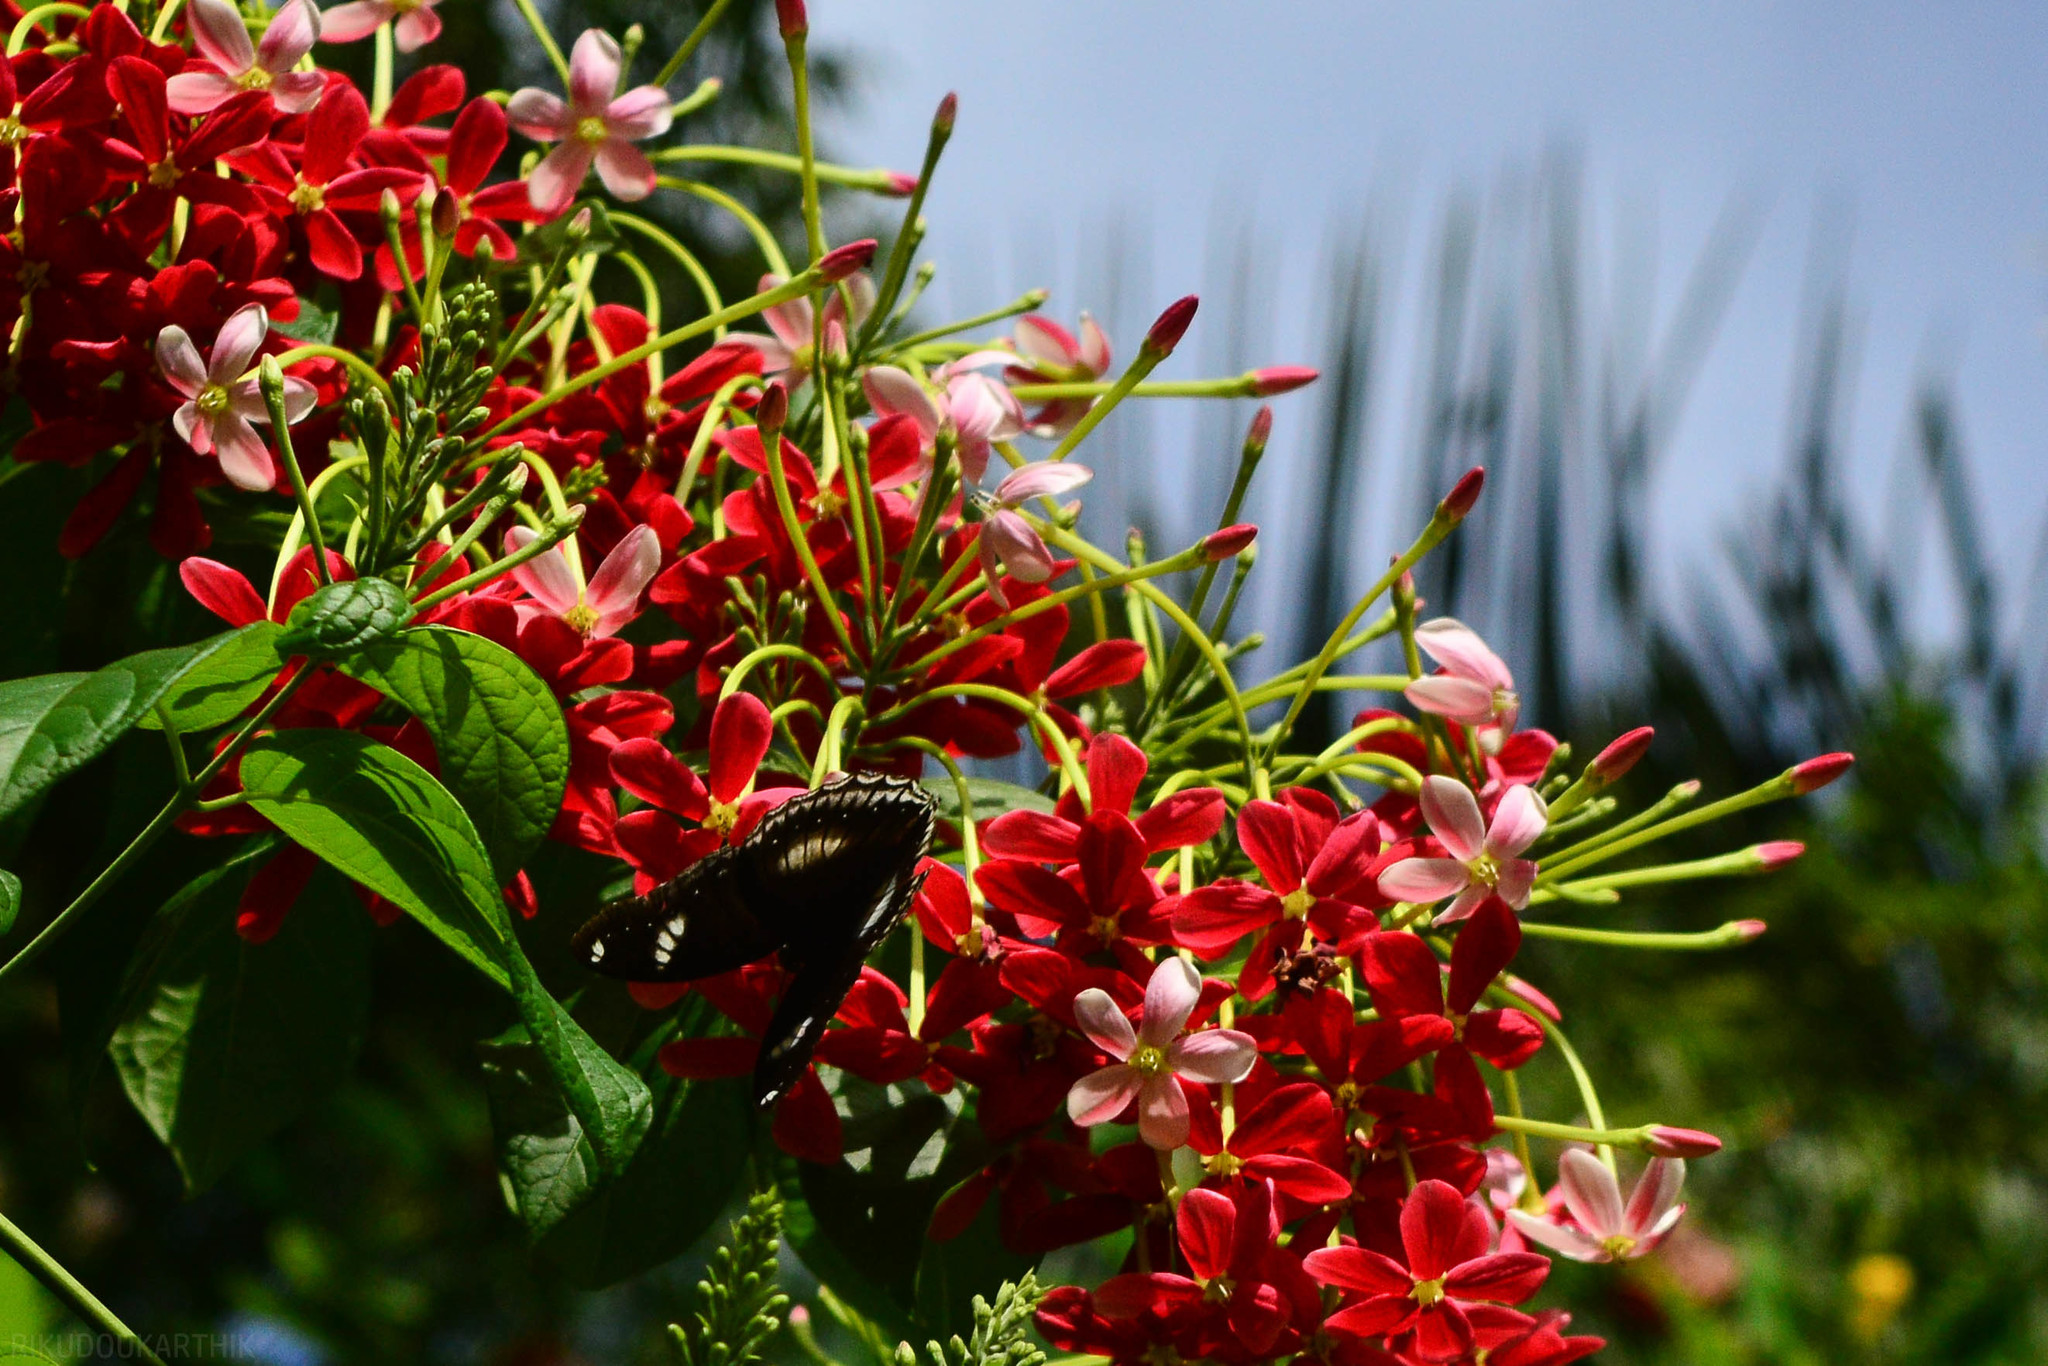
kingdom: Plantae
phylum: Tracheophyta
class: Magnoliopsida
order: Myrtales
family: Combretaceae
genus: Combretum
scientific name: Combretum indicum
